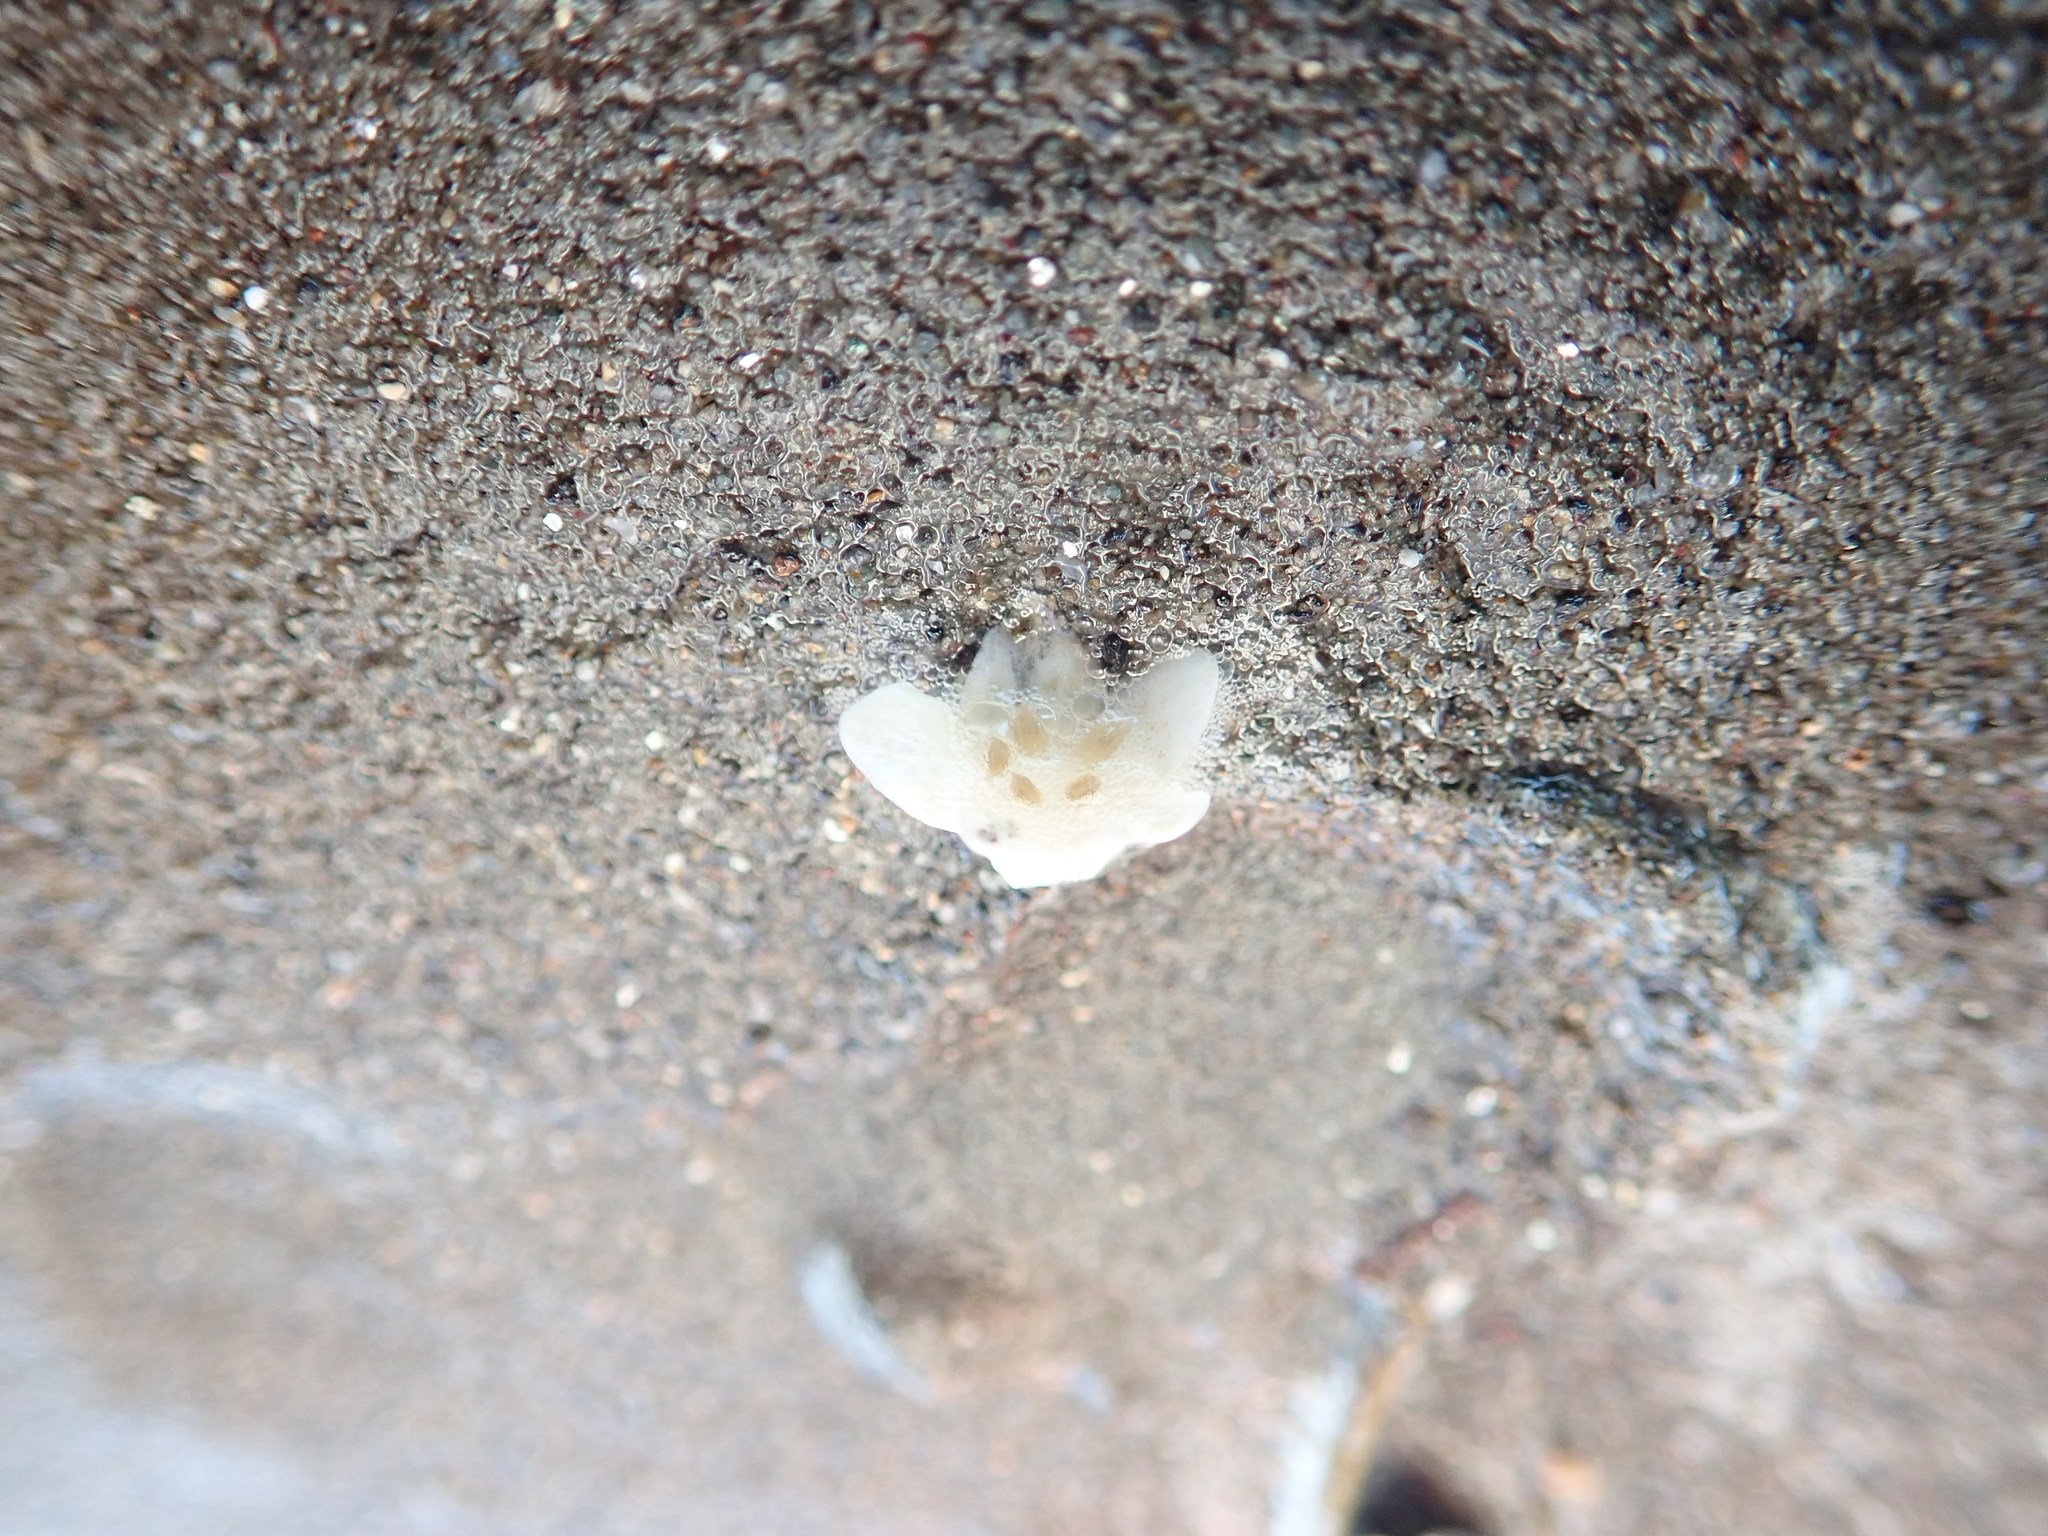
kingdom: Plantae
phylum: Tracheophyta
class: Magnoliopsida
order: Ericales
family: Primulaceae
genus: Samolus
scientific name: Samolus repens
